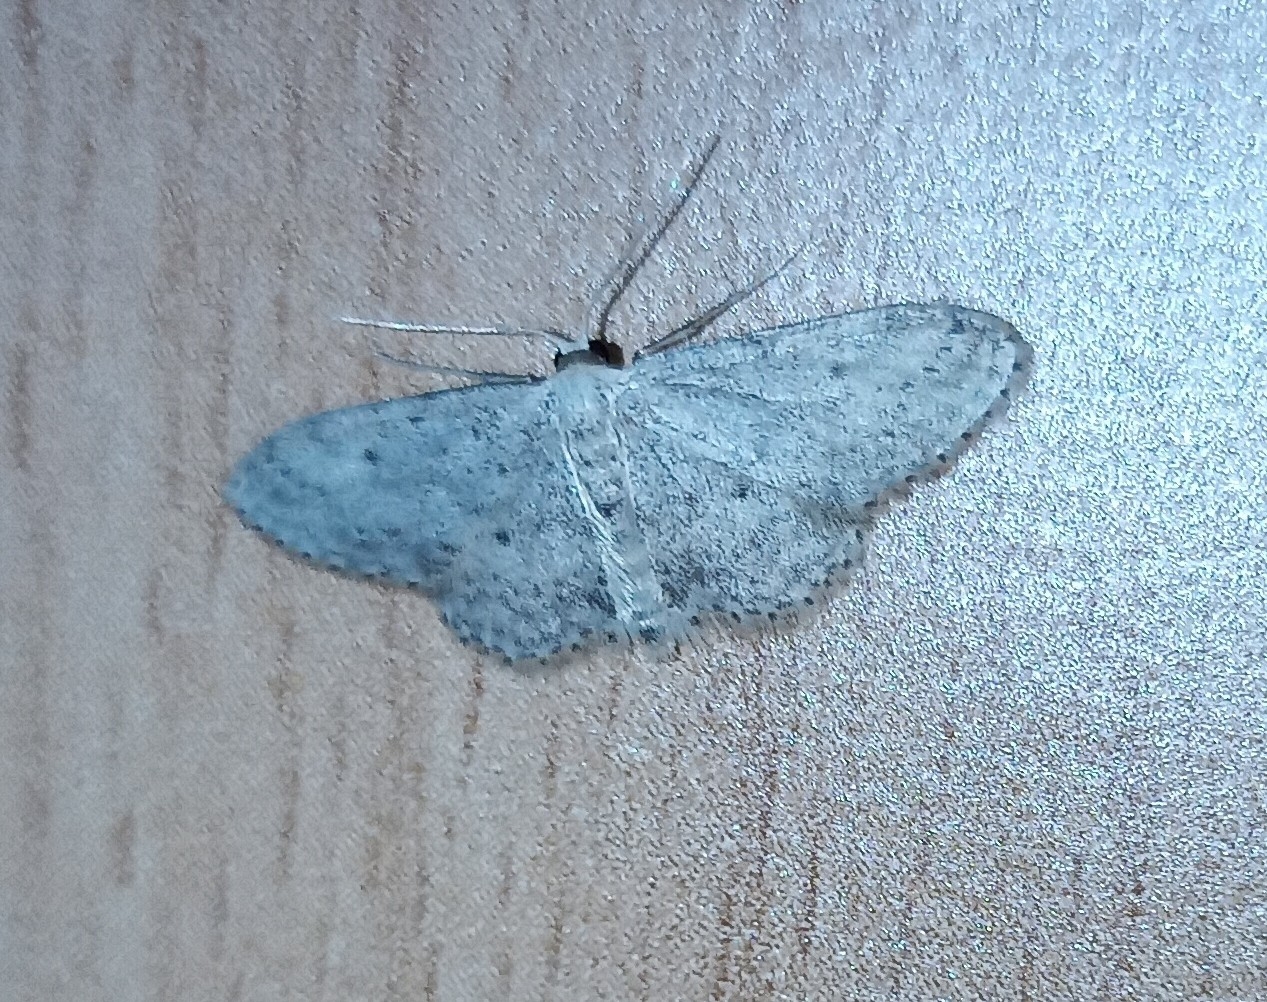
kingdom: Animalia
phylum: Arthropoda
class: Insecta
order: Lepidoptera
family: Geometridae
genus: Idaea
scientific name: Idaea seriata
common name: Small dusty wave
